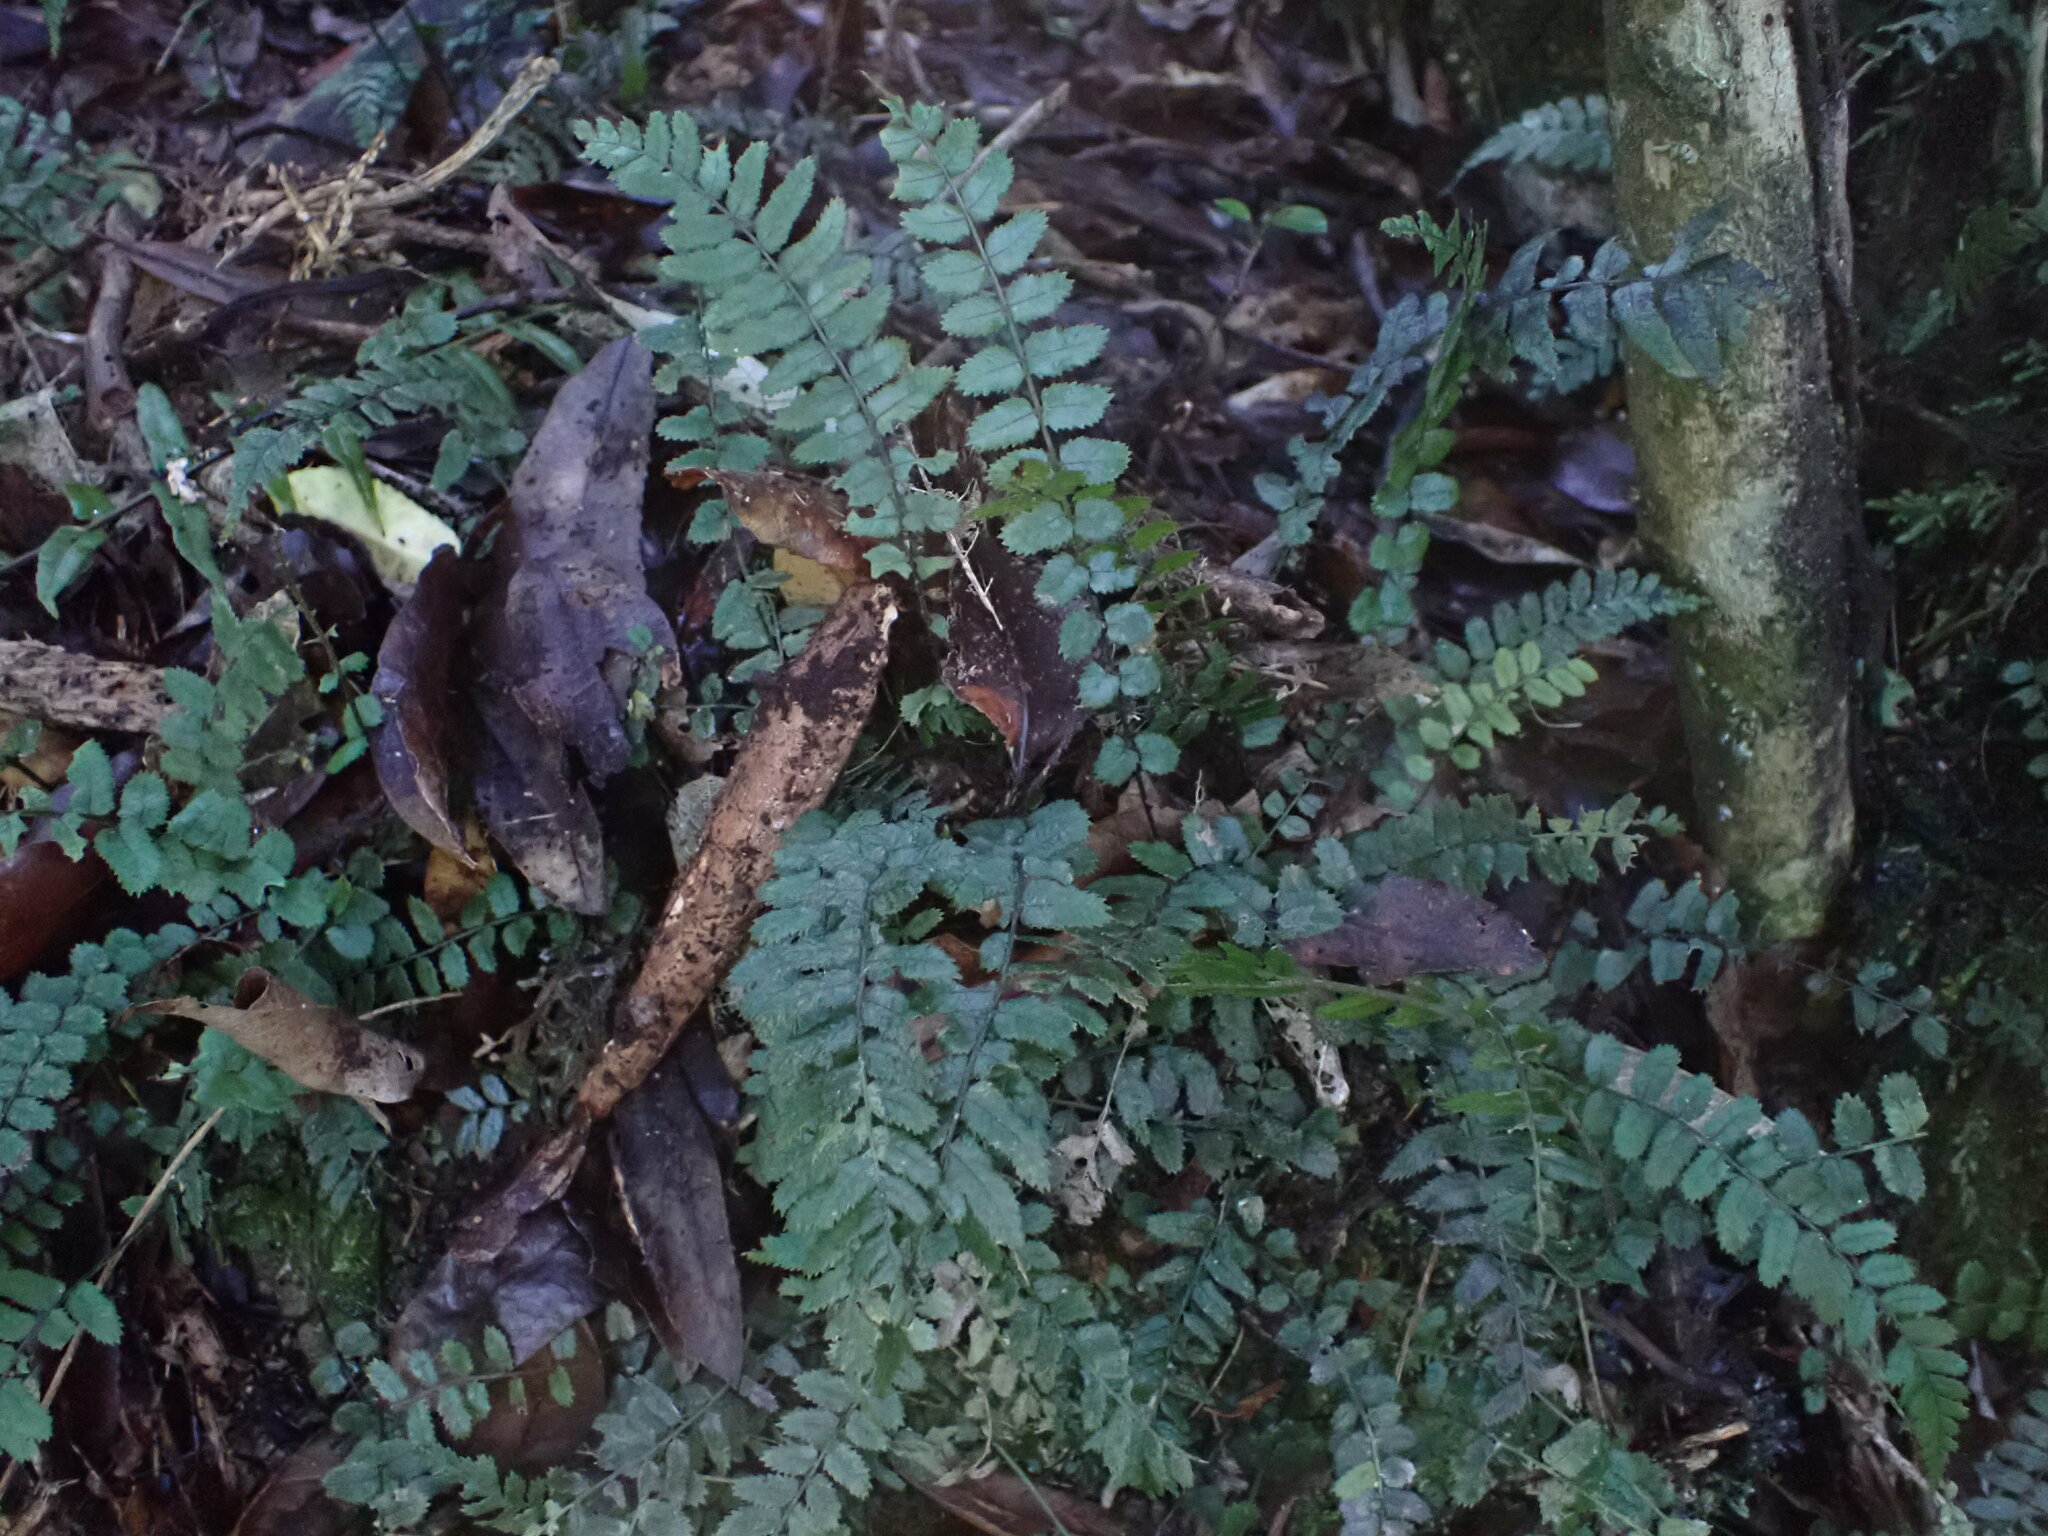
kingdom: Plantae
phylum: Tracheophyta
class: Polypodiopsida
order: Polypodiales
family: Blechnaceae
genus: Icarus
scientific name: Icarus filiformis
